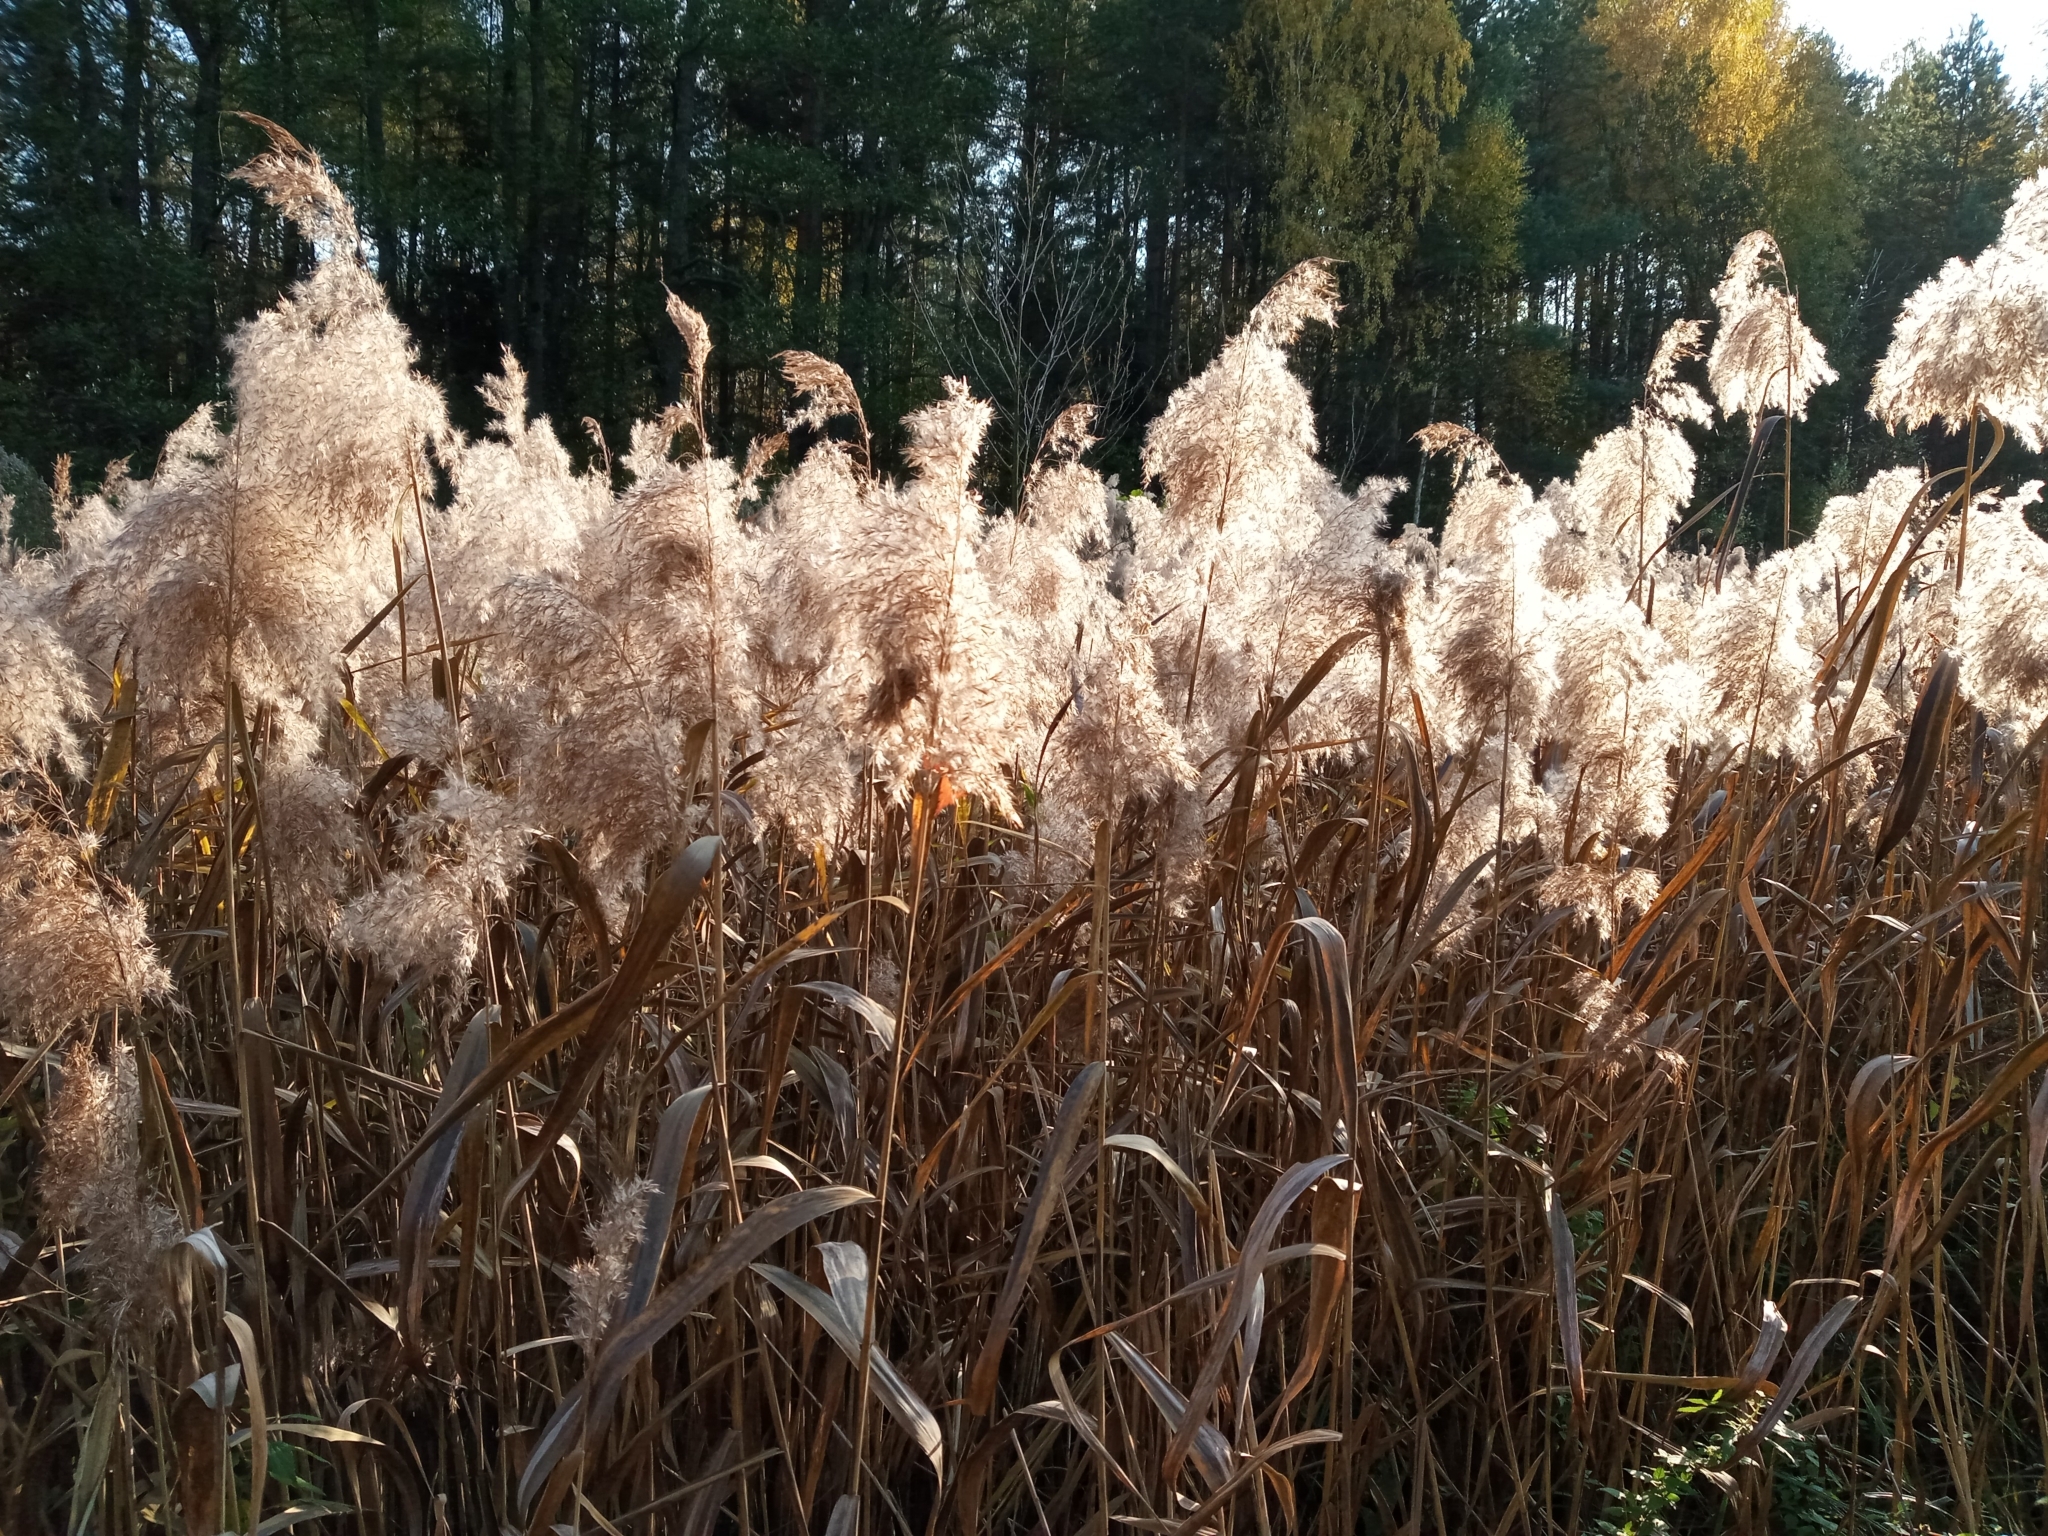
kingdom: Plantae
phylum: Tracheophyta
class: Liliopsida
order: Poales
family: Poaceae
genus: Phragmites
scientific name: Phragmites australis
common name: Common reed
